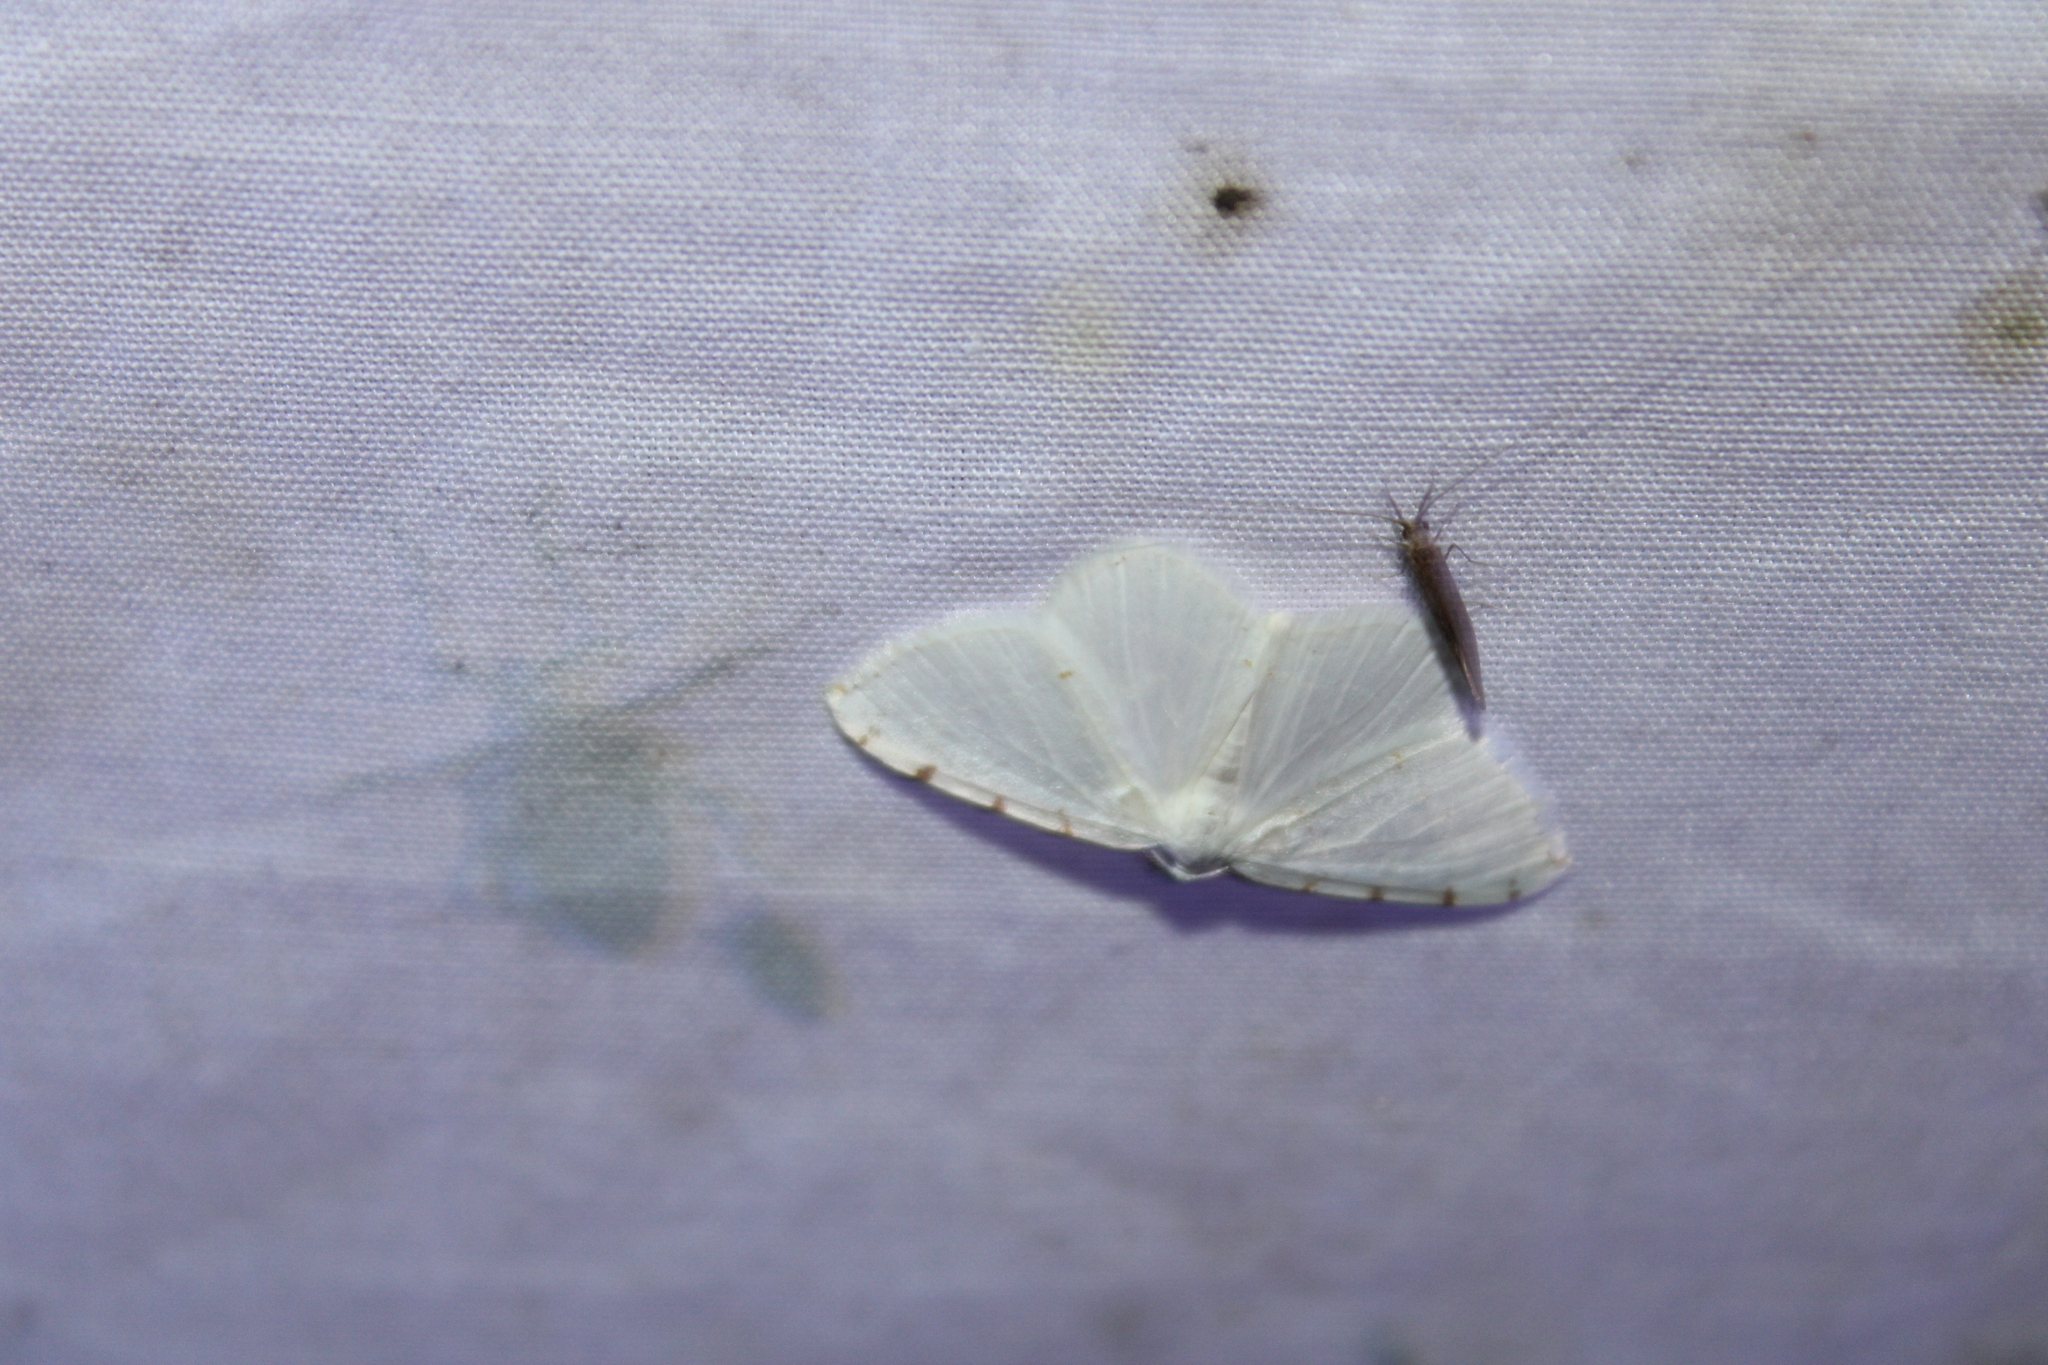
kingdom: Animalia
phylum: Arthropoda
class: Insecta
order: Lepidoptera
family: Geometridae
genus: Macaria
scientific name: Macaria pustularia
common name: Lesser maple spanworm moth
